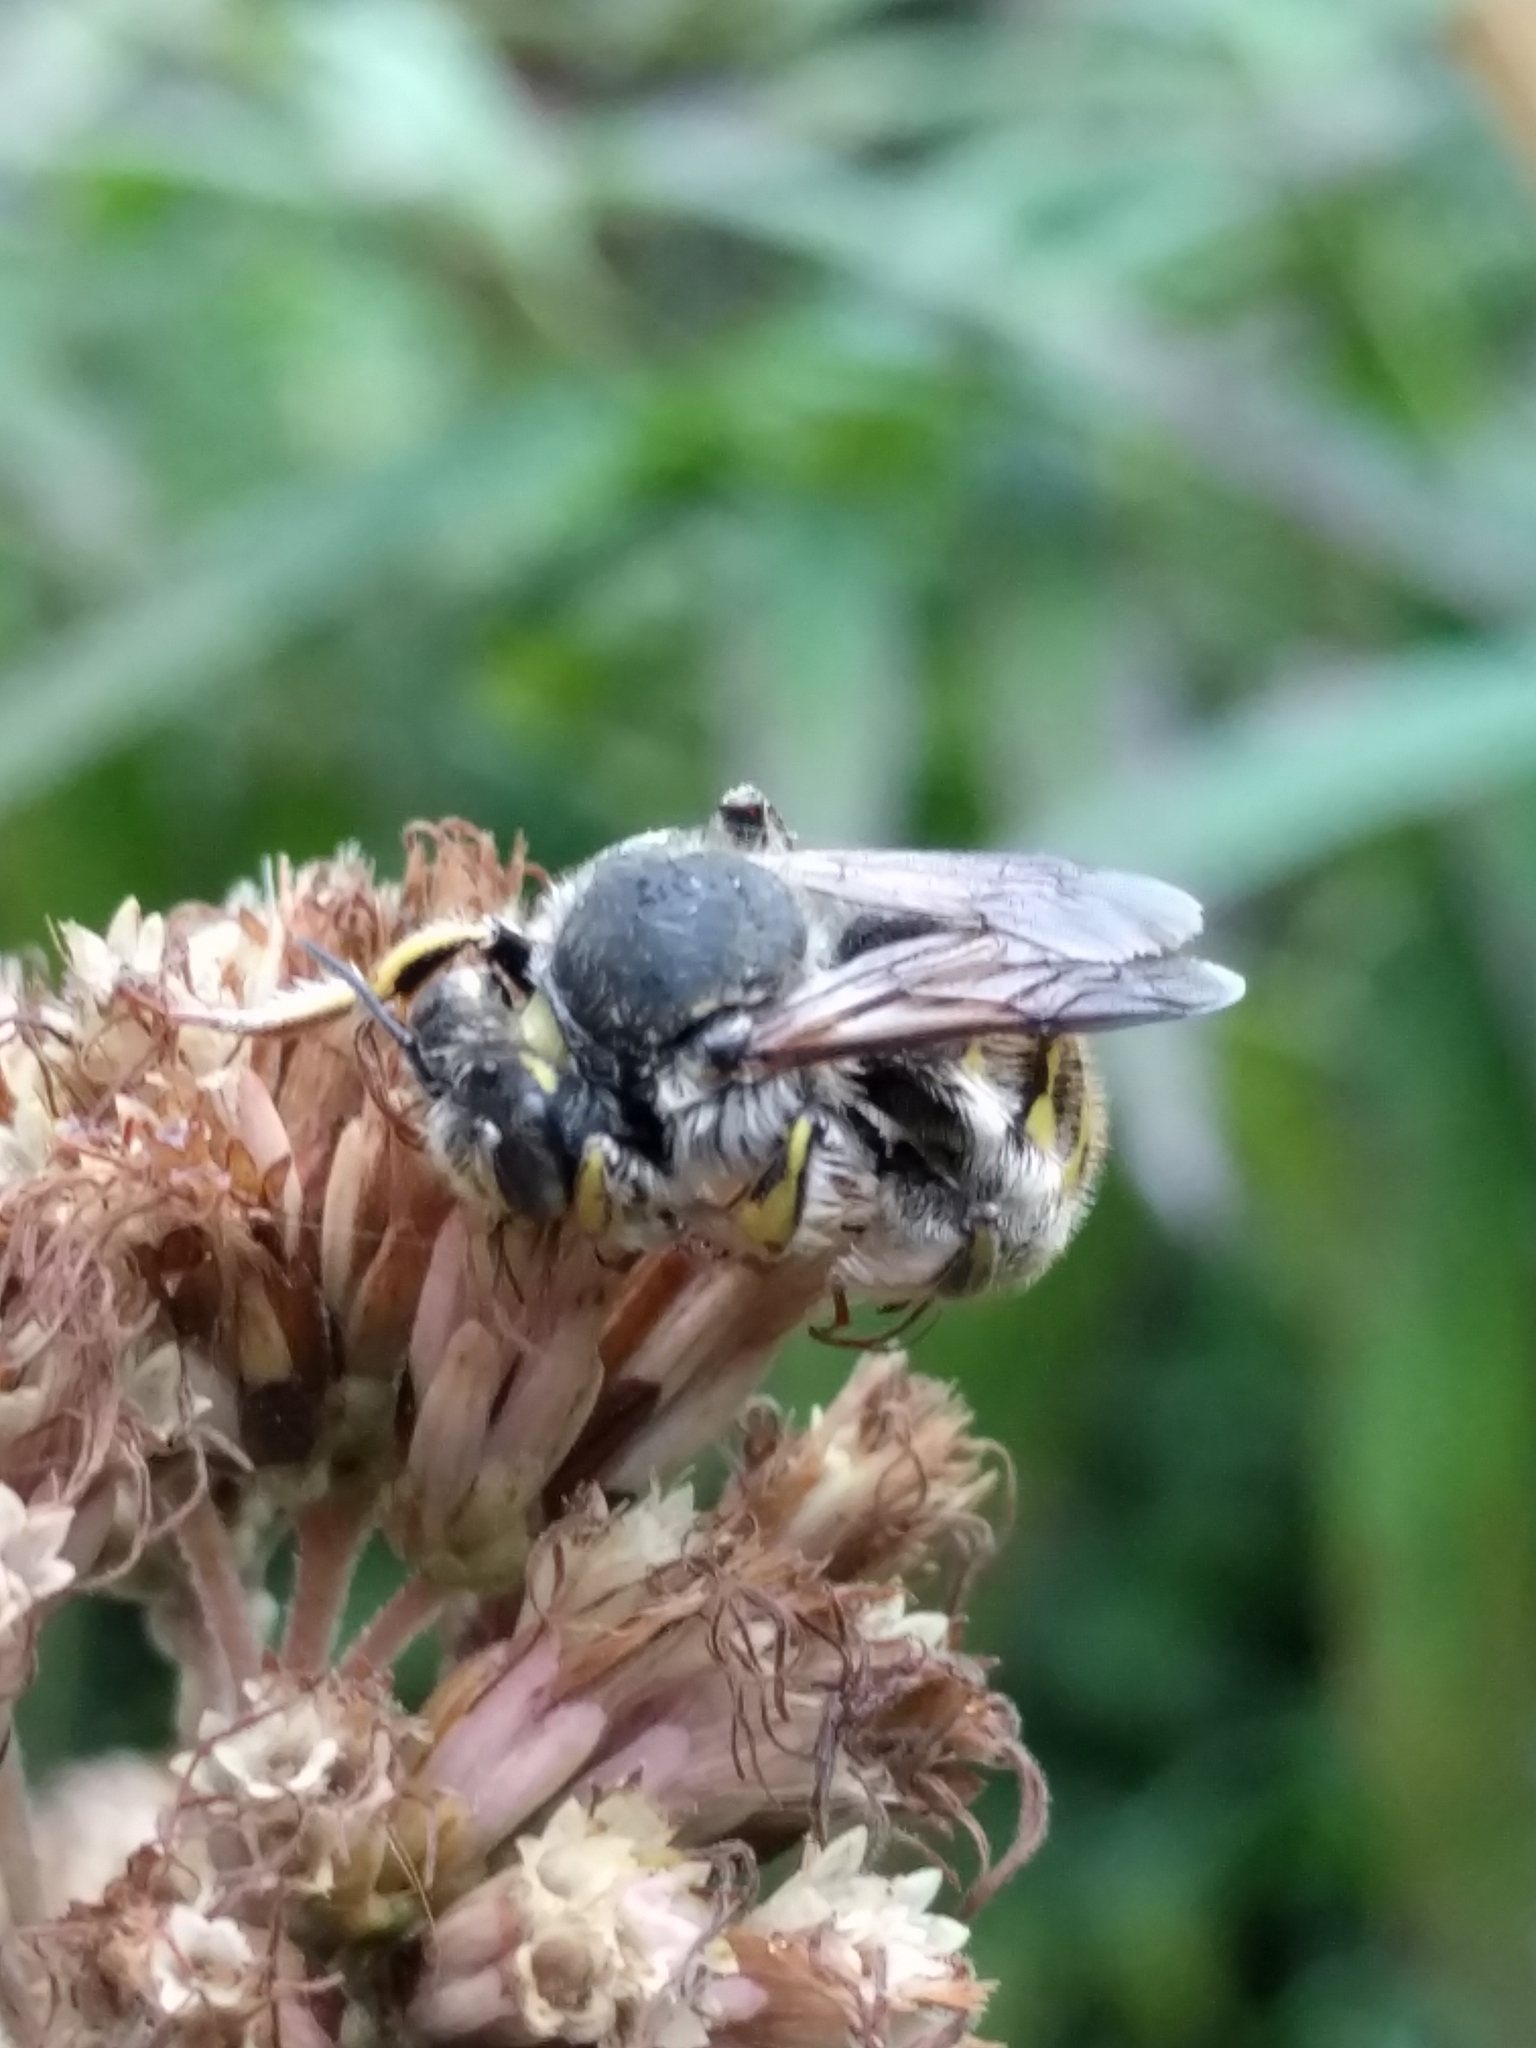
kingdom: Animalia
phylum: Arthropoda
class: Insecta
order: Hymenoptera
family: Megachilidae
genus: Anthidium
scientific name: Anthidium manicatum
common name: Wool carder bee
